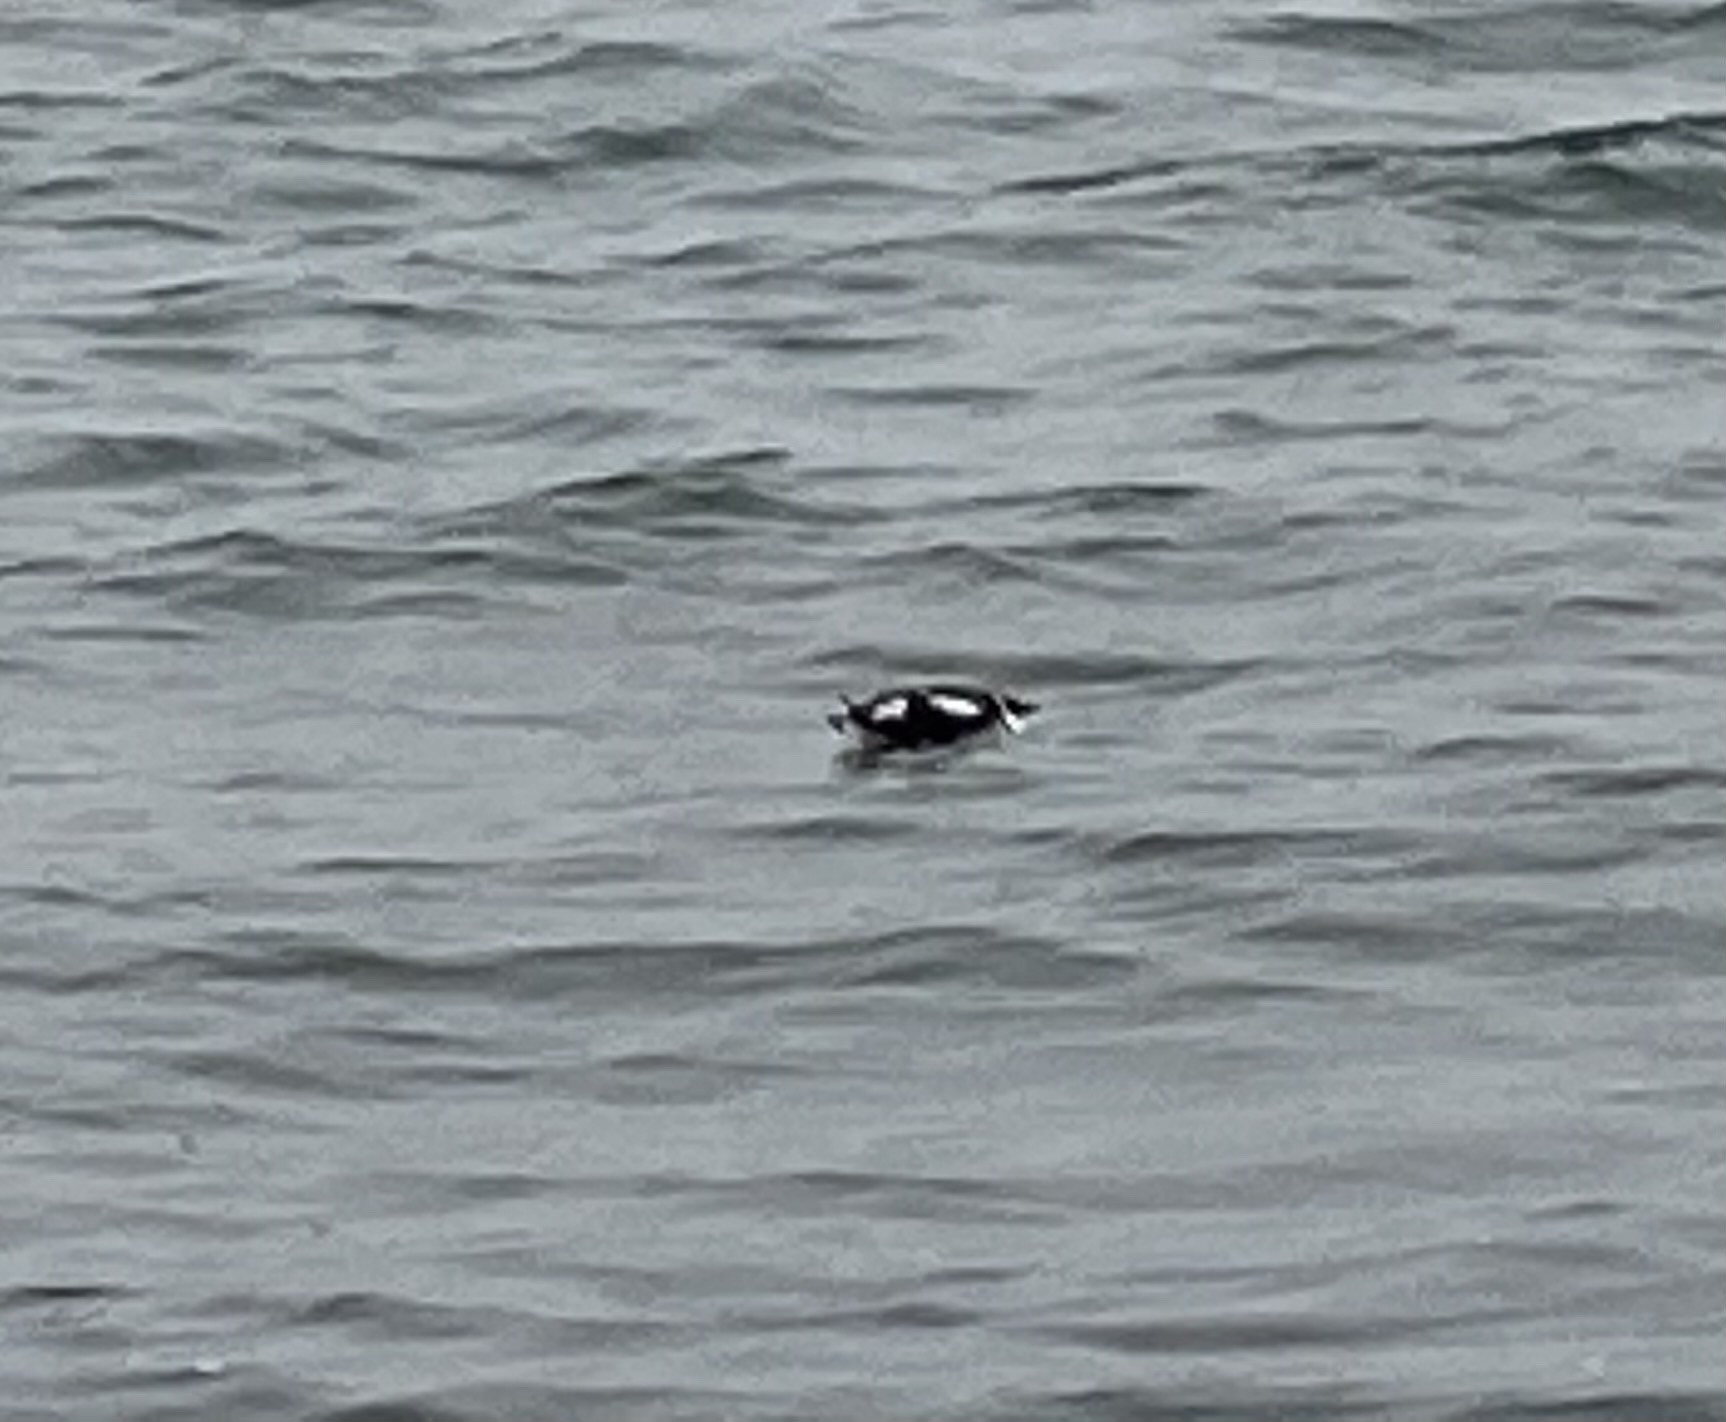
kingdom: Animalia
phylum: Chordata
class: Aves
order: Charadriiformes
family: Alcidae
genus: Brachyramphus
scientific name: Brachyramphus marmoratus
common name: Marbled murrelet
